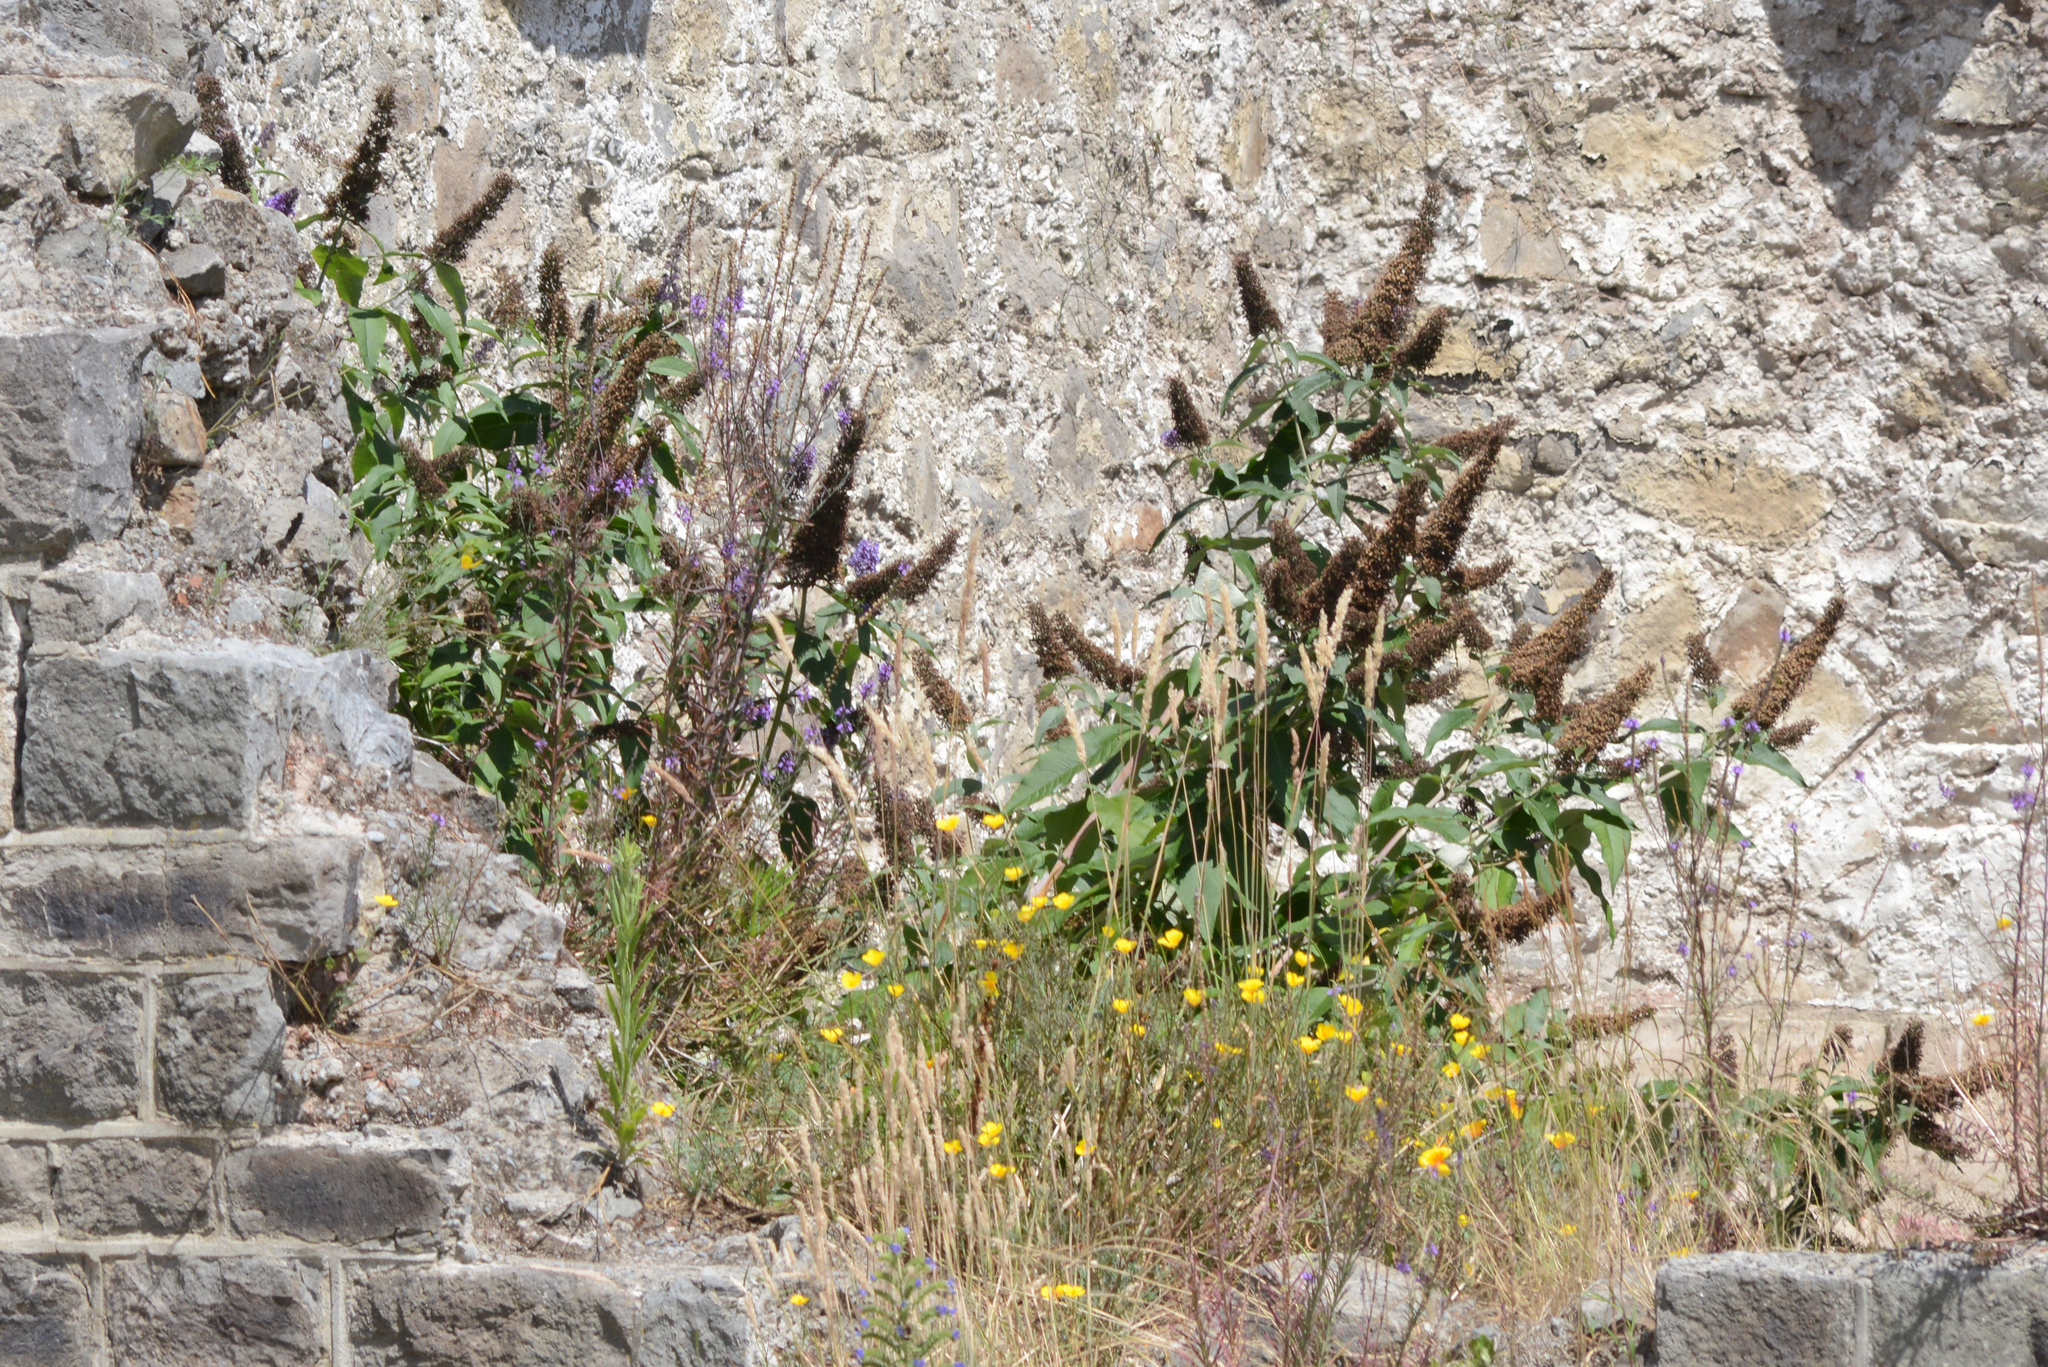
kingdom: Plantae
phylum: Tracheophyta
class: Magnoliopsida
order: Lamiales
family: Scrophulariaceae
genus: Buddleja
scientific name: Buddleja davidii
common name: Butterfly-bush
